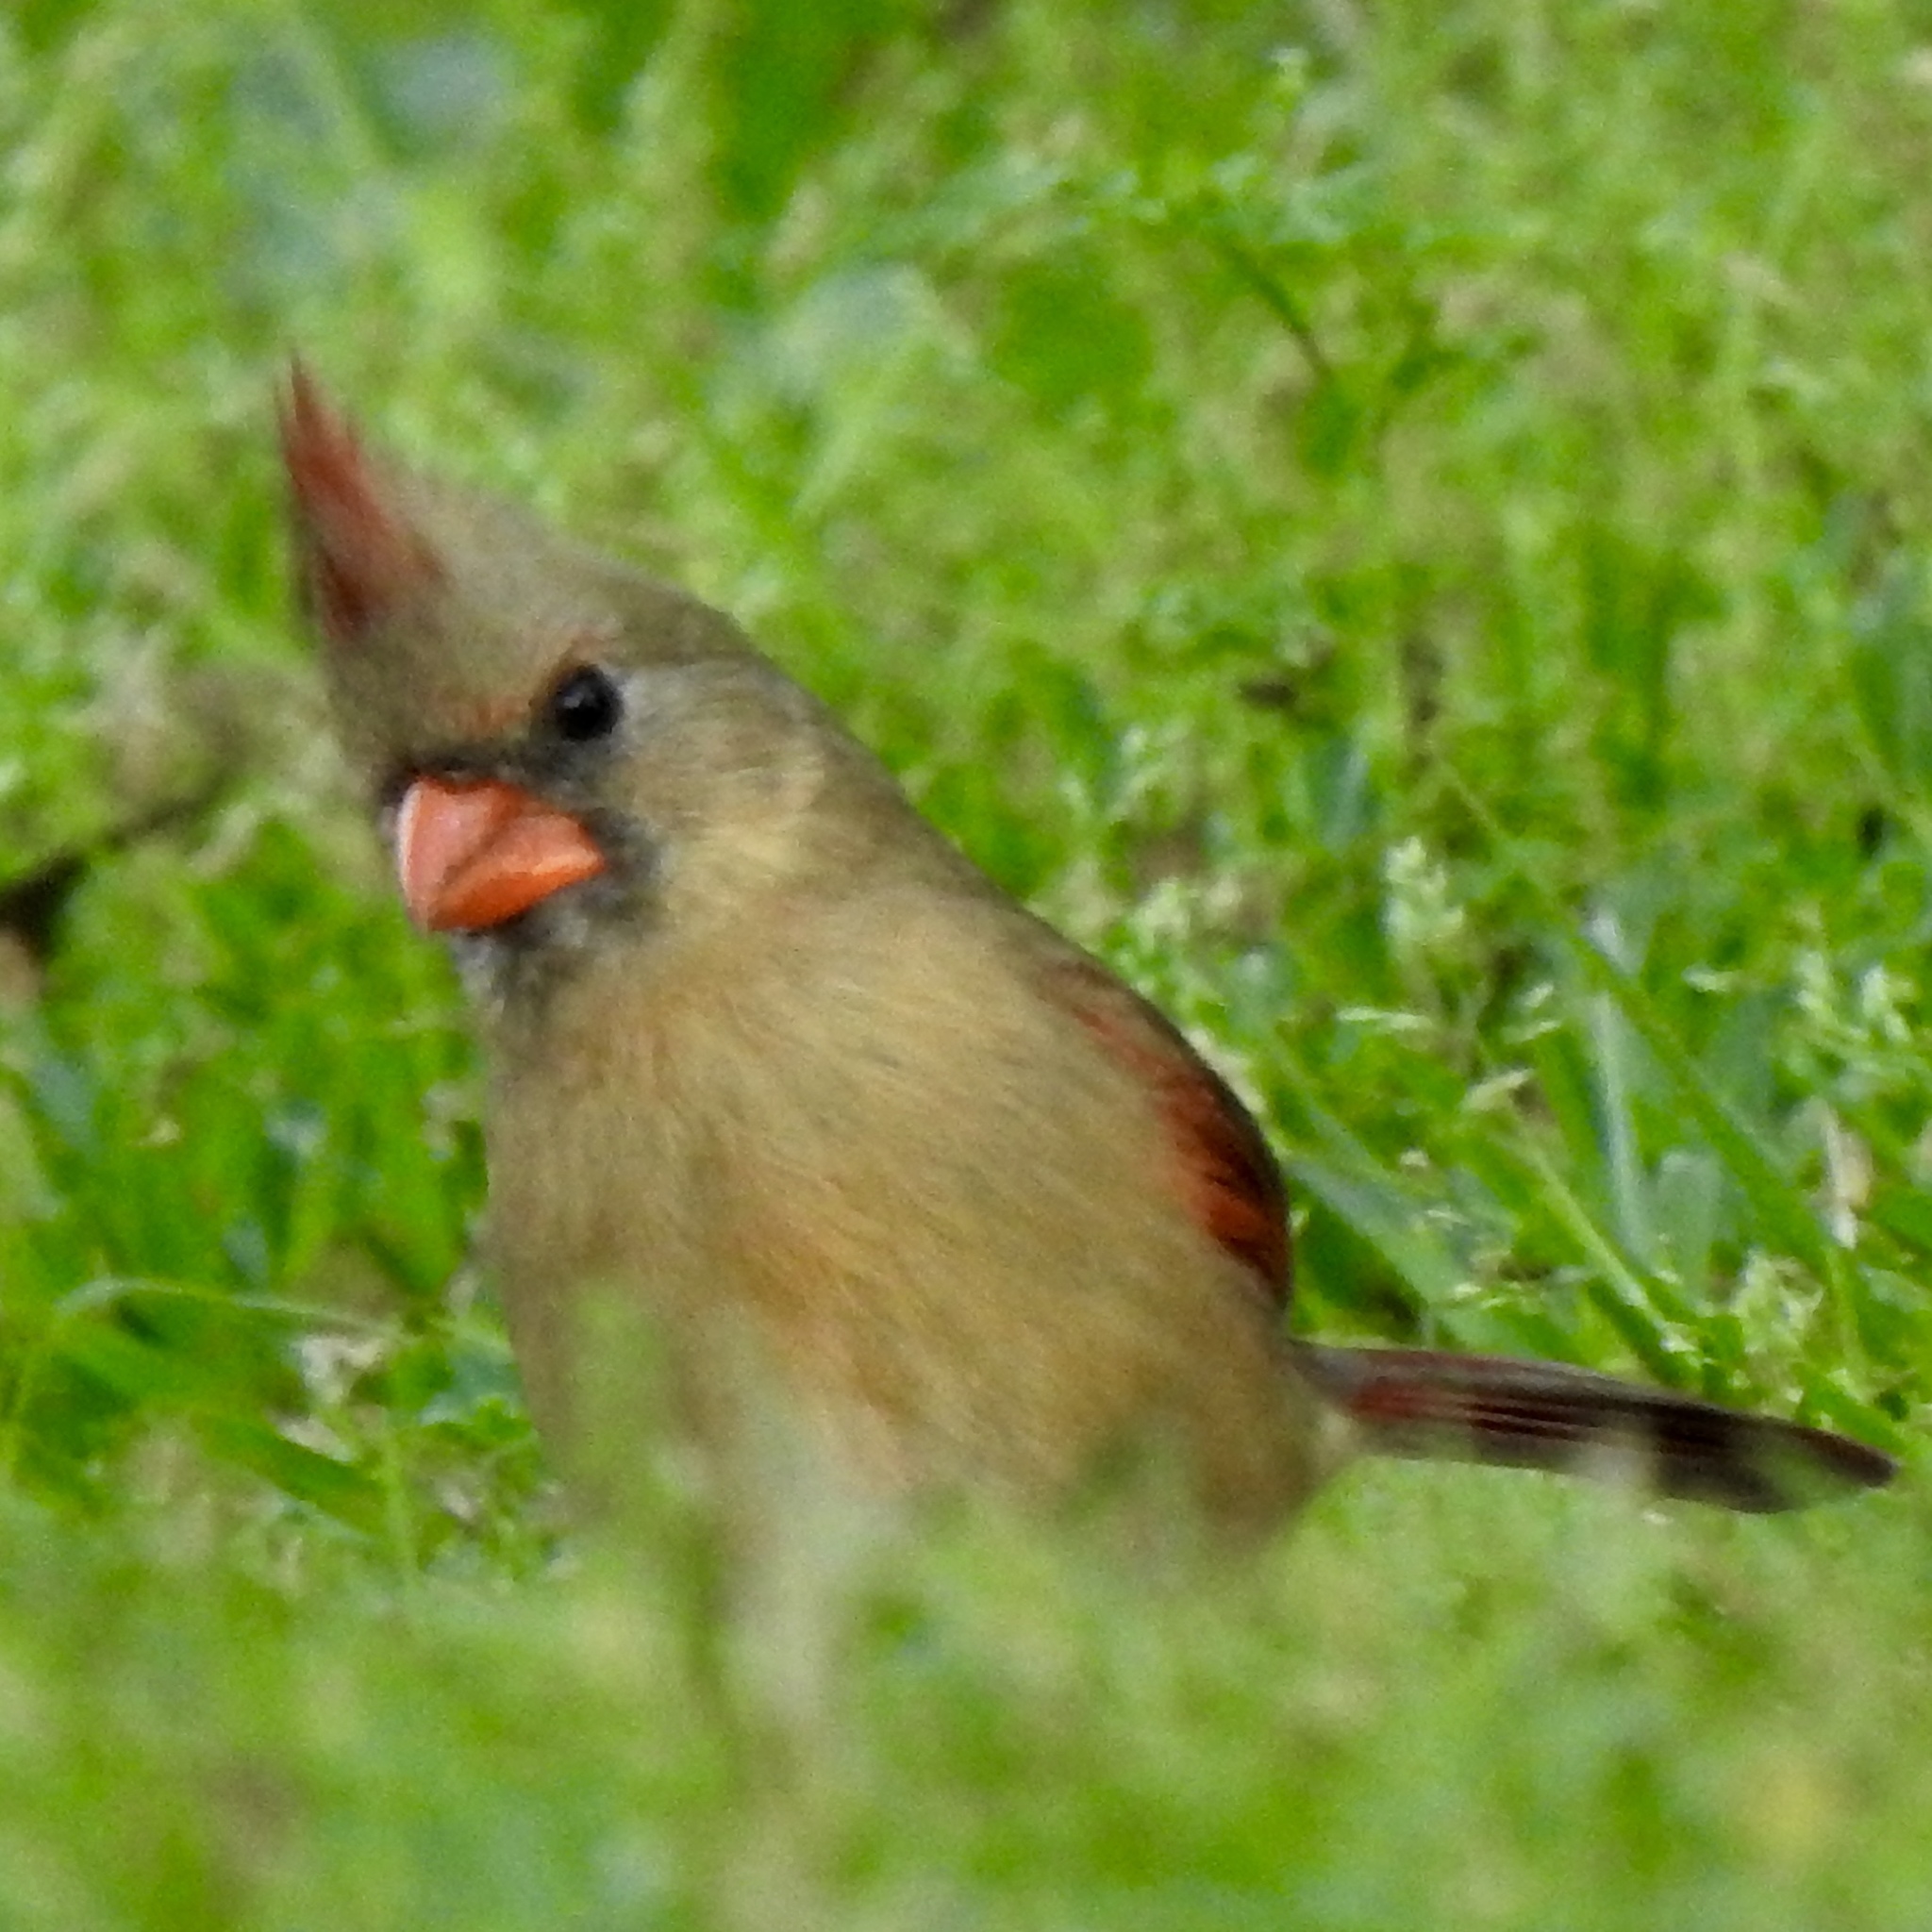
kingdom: Animalia
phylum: Chordata
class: Aves
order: Passeriformes
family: Cardinalidae
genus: Cardinalis
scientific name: Cardinalis cardinalis
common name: Northern cardinal
